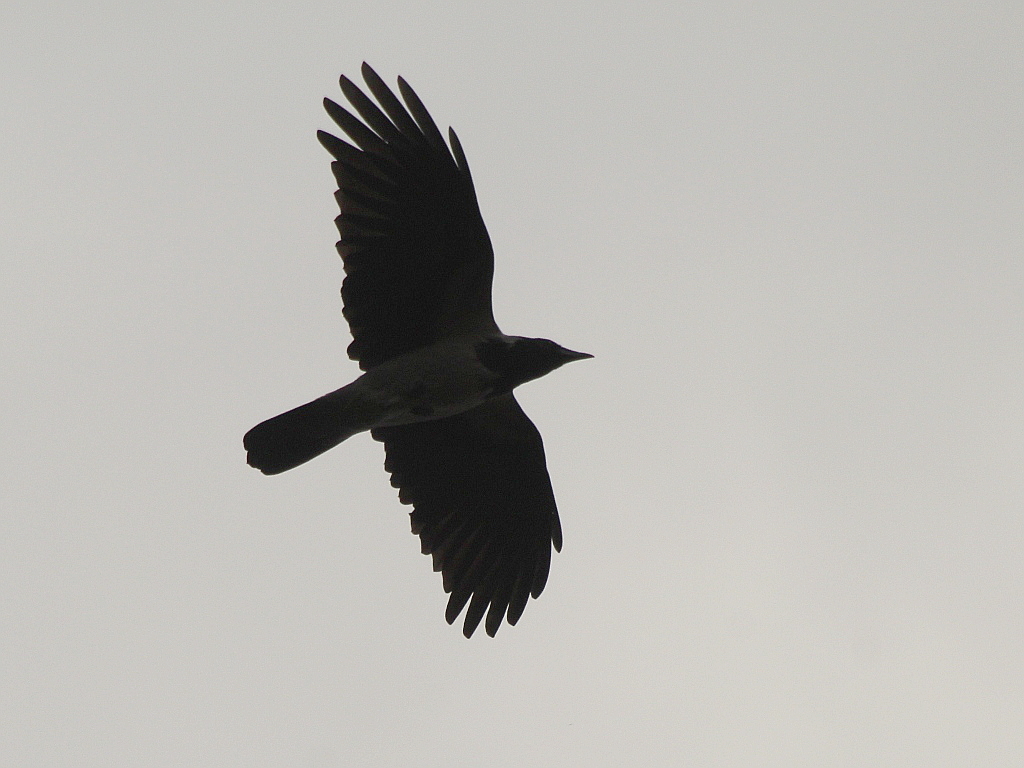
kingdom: Animalia
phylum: Chordata
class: Aves
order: Passeriformes
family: Corvidae
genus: Corvus
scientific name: Corvus cornix
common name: Hooded crow
